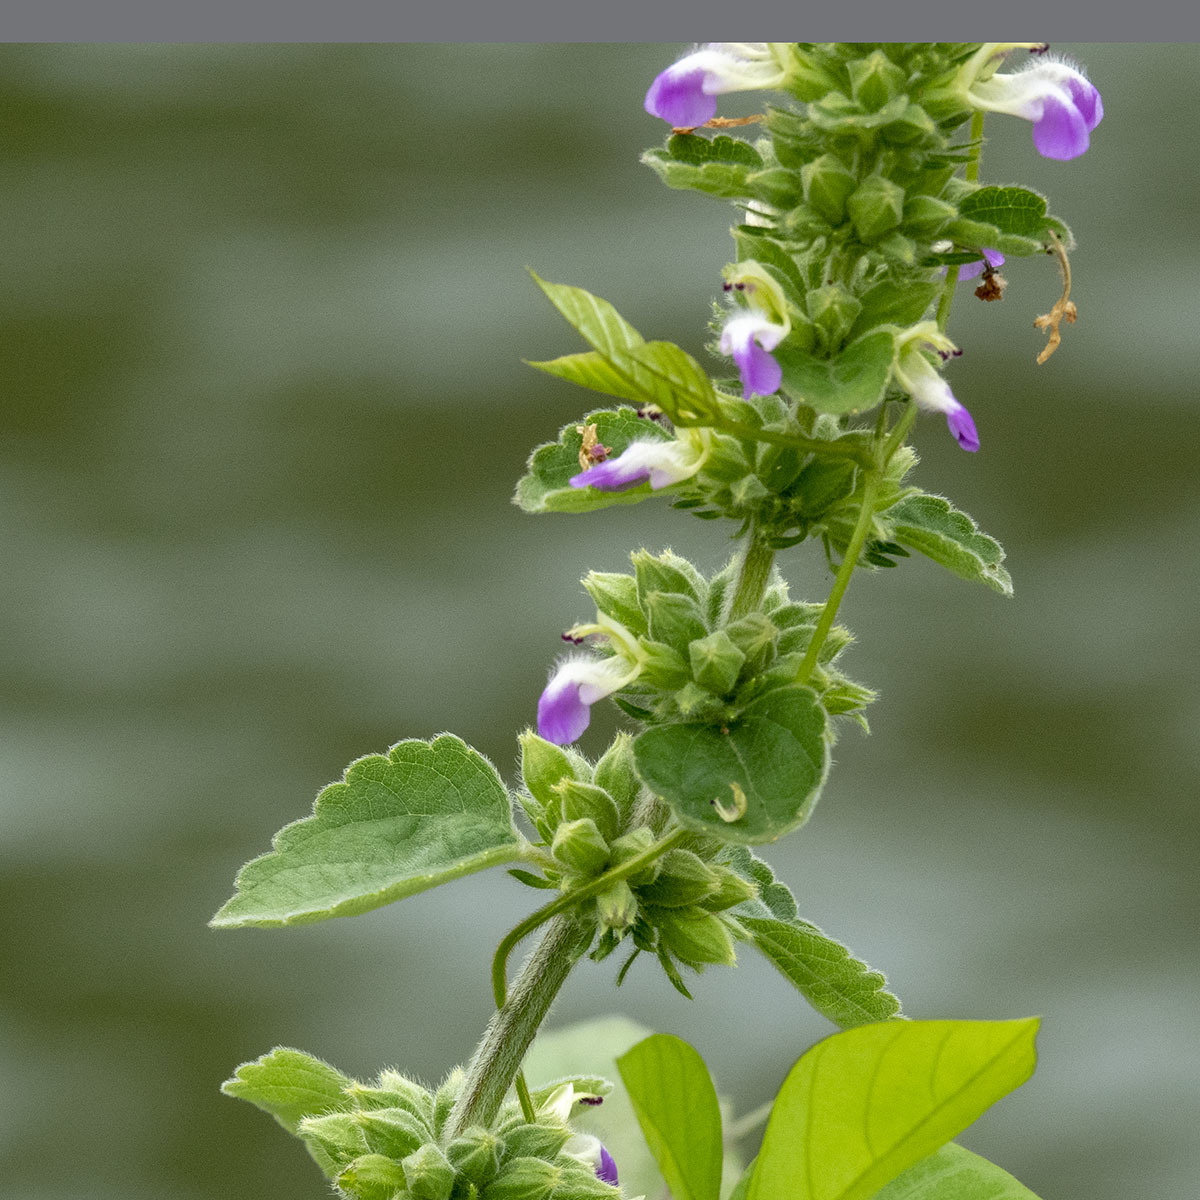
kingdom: Plantae
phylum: Tracheophyta
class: Magnoliopsida
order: Lamiales
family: Lamiaceae
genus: Anisomeles
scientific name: Anisomeles indica
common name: Catmint
